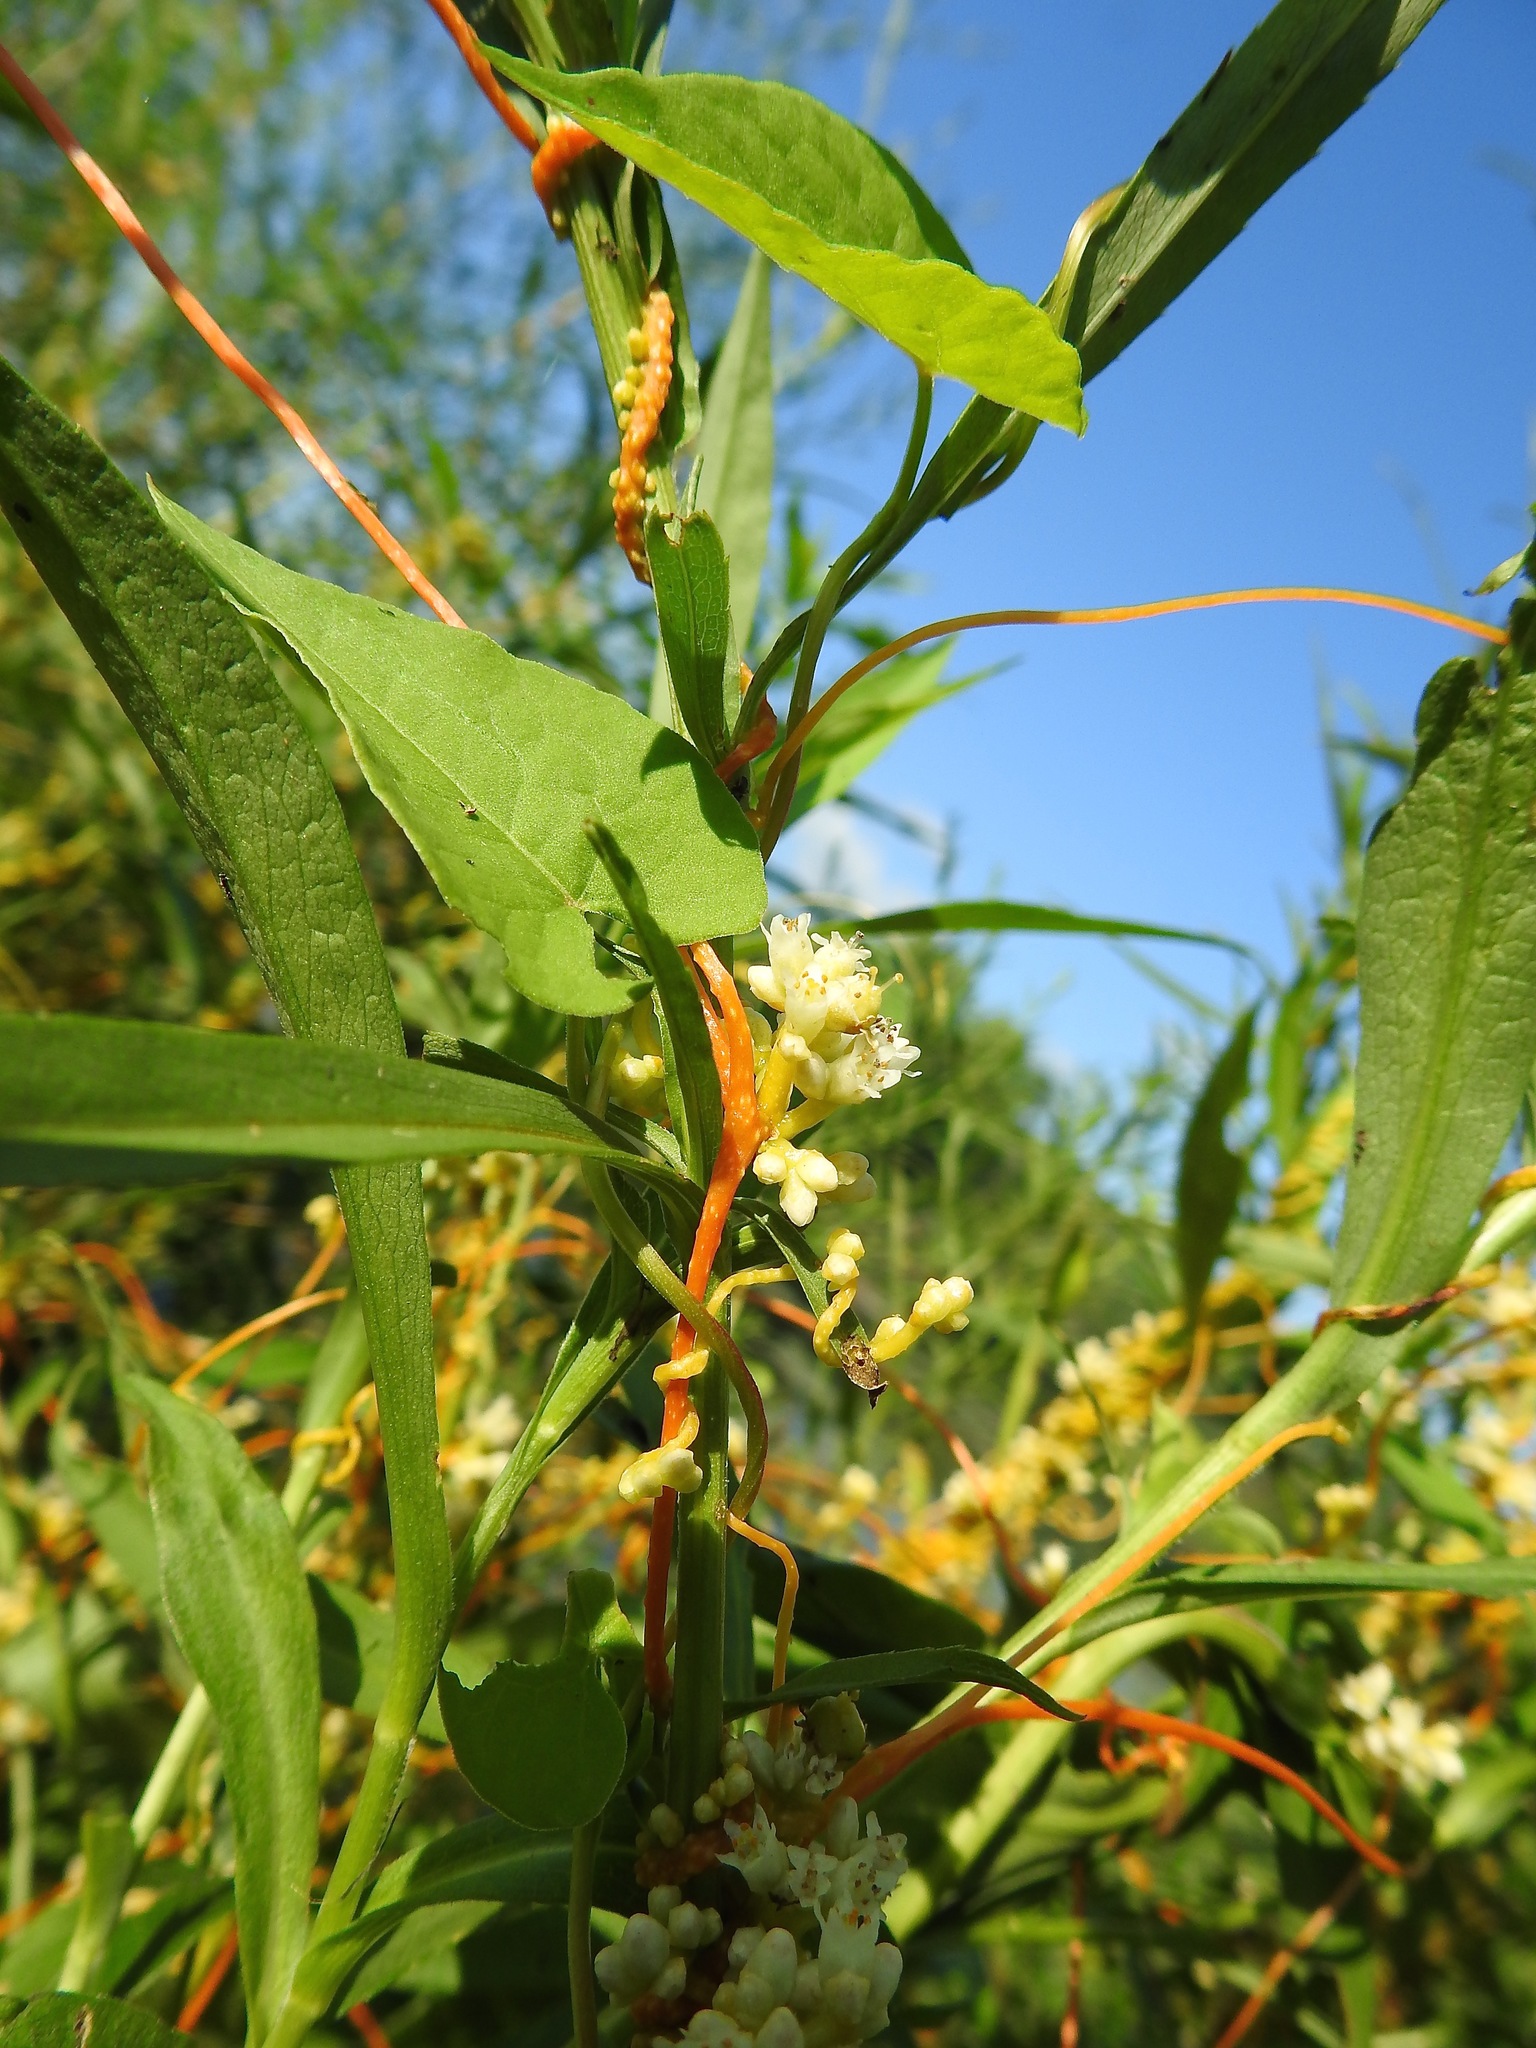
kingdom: Plantae
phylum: Tracheophyta
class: Magnoliopsida
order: Solanales
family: Convolvulaceae
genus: Cuscuta
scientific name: Cuscuta gronovii
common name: Common dodder
